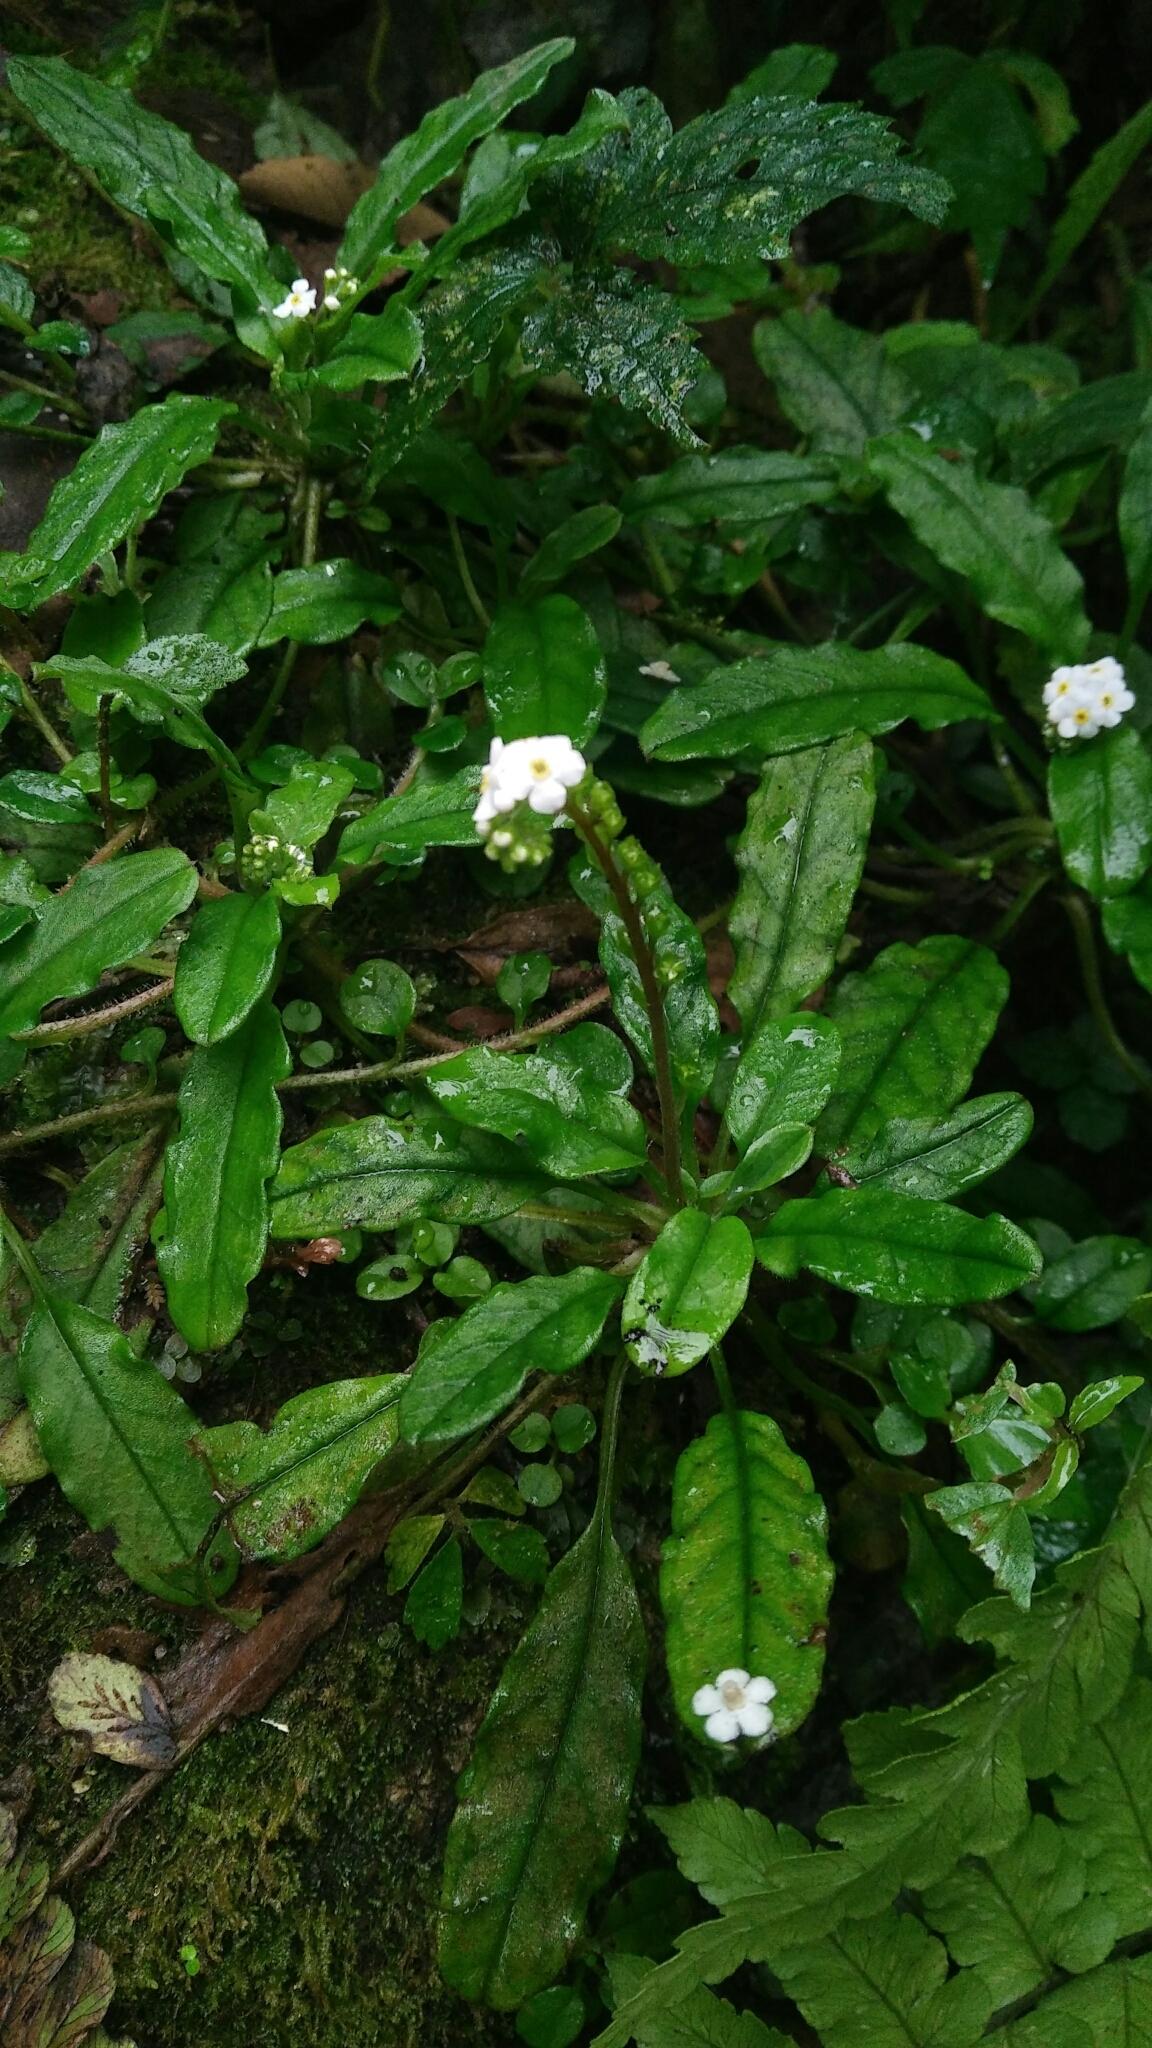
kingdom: Plantae
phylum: Tracheophyta
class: Magnoliopsida
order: Boraginales
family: Boraginaceae
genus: Trigonotis
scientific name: Trigonotis formosana
